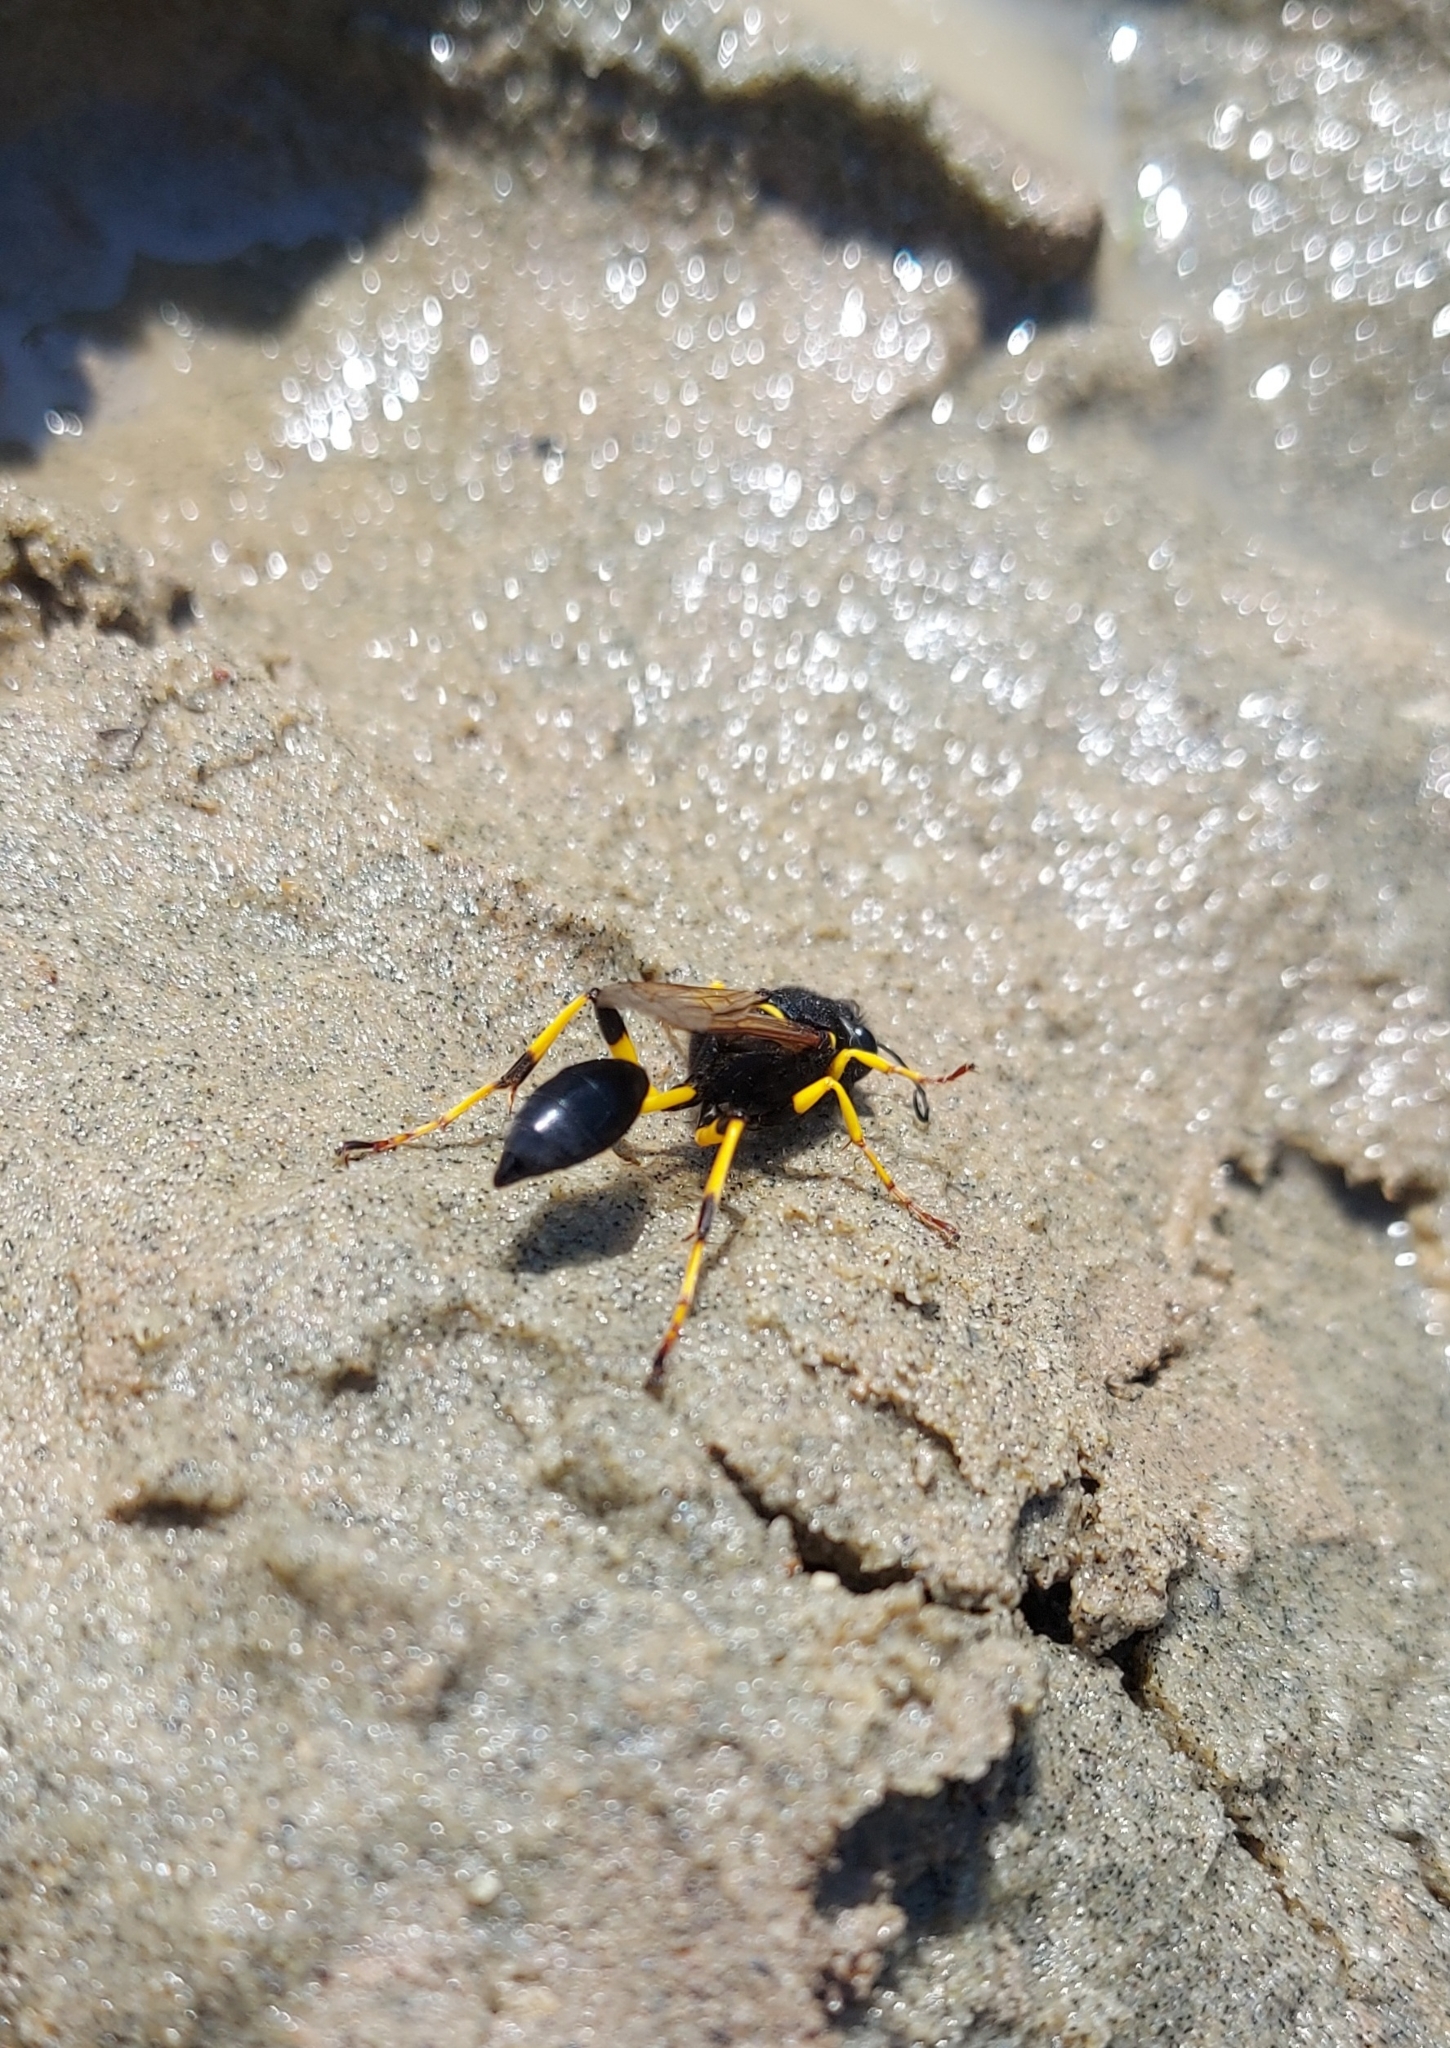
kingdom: Animalia
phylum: Arthropoda
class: Insecta
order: Hymenoptera
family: Sphecidae
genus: Sceliphron
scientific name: Sceliphron destillatorium
